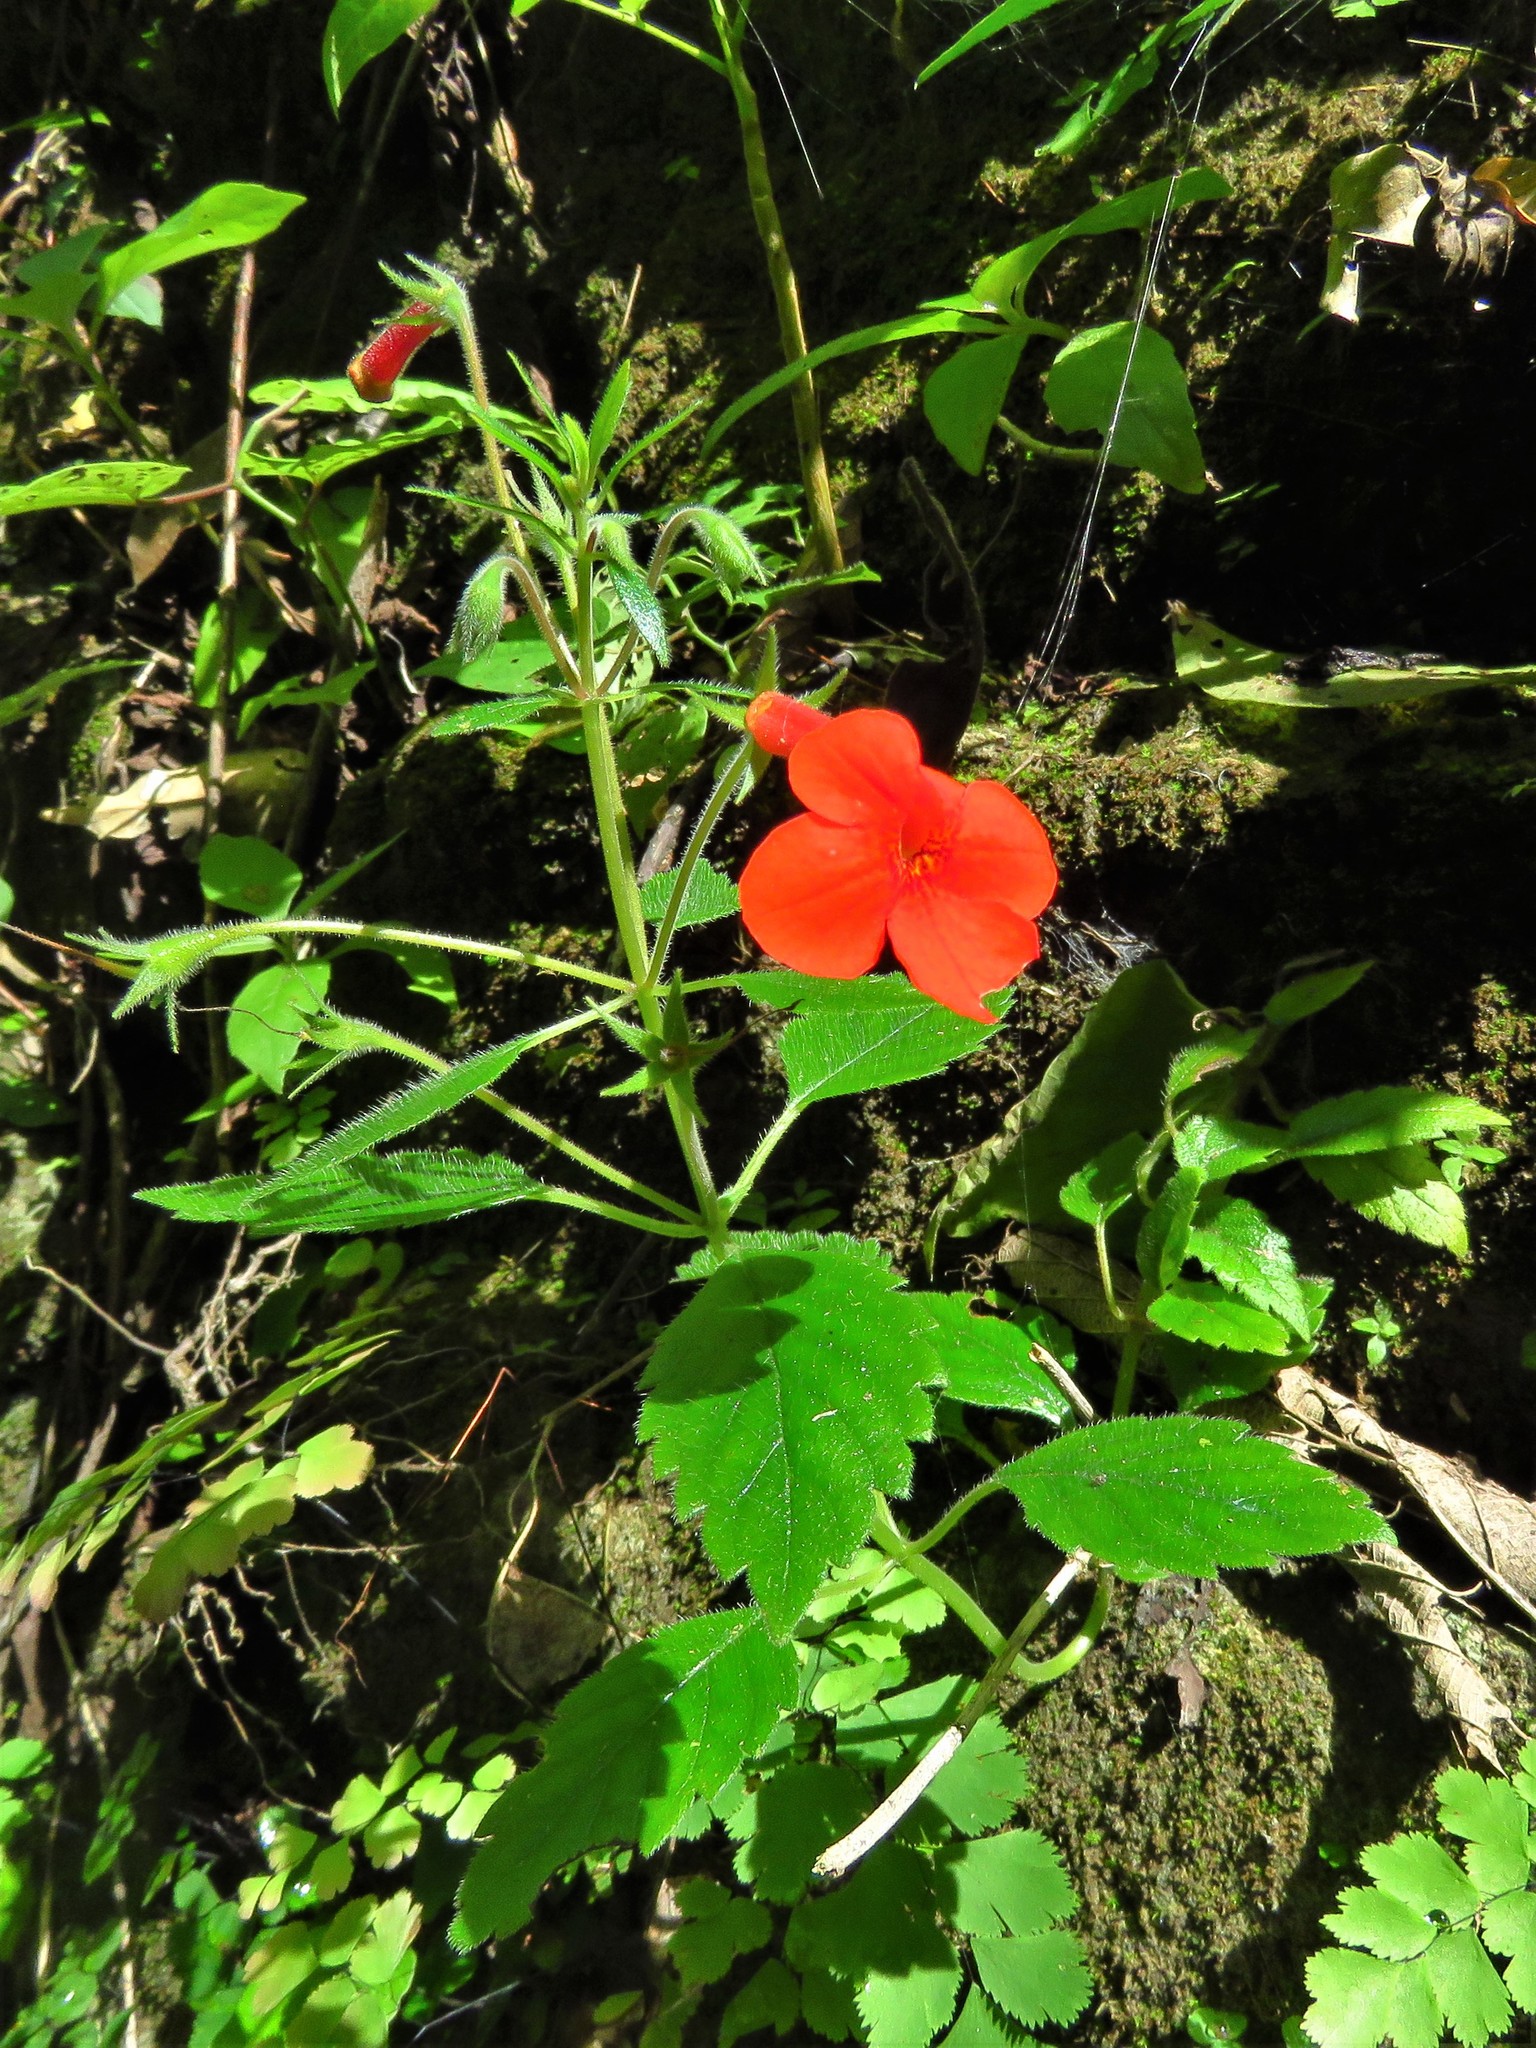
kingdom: Plantae
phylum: Tracheophyta
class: Magnoliopsida
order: Lamiales
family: Gesneriaceae
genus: Achimenes
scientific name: Achimenes admirabilis
